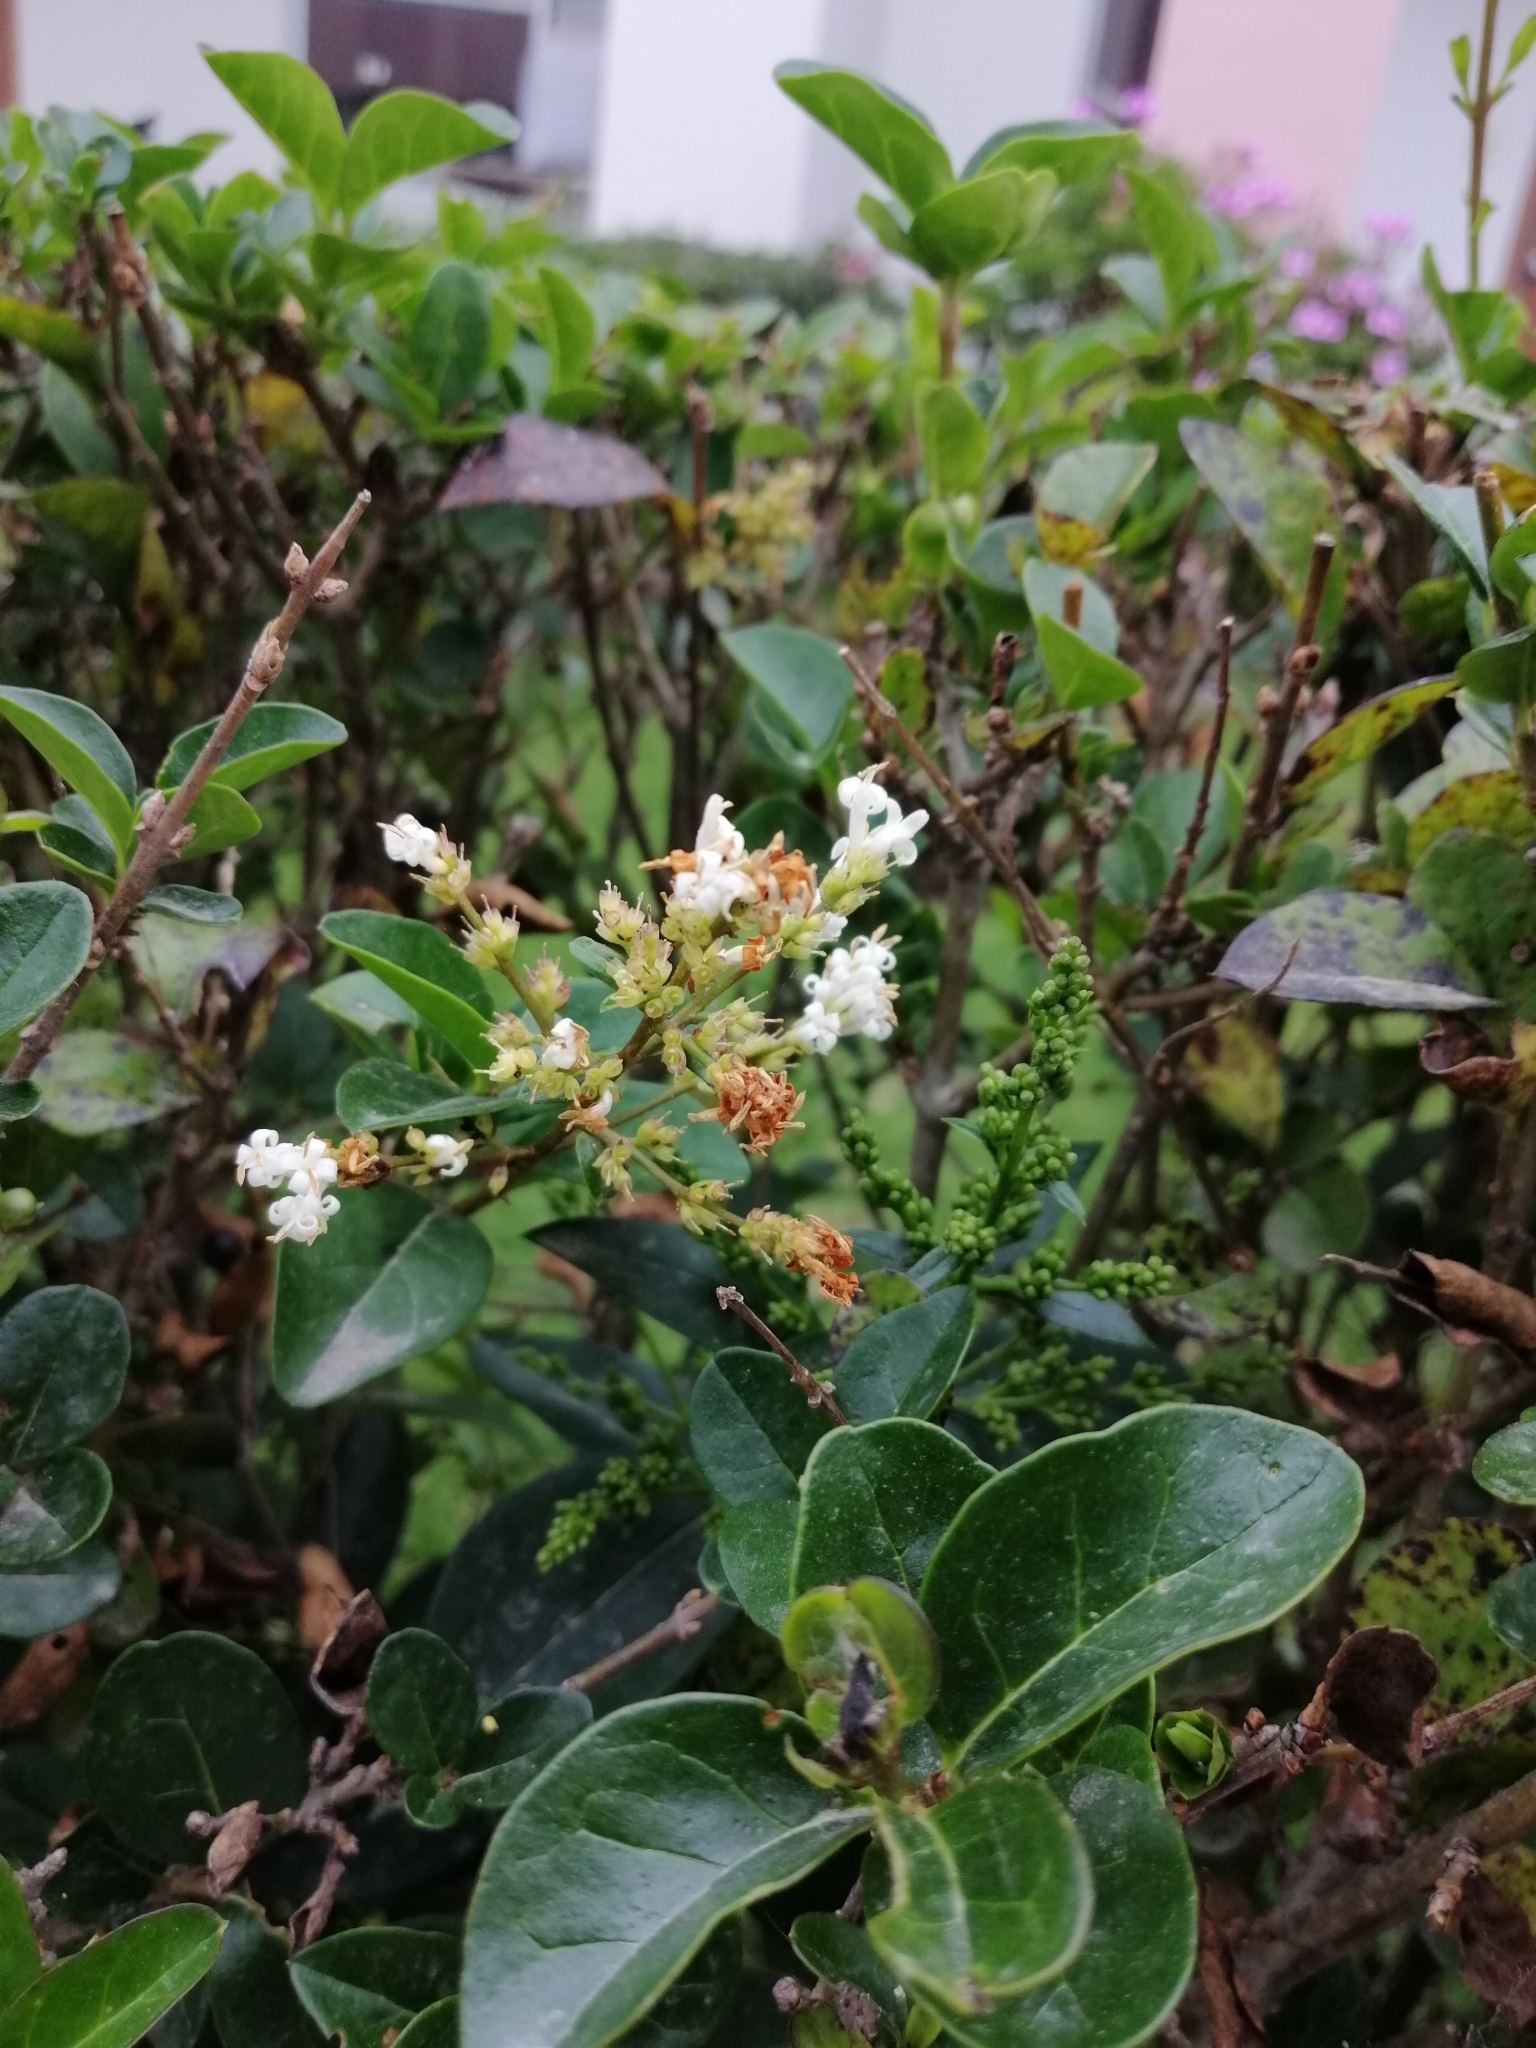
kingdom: Plantae
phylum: Tracheophyta
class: Magnoliopsida
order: Lamiales
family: Oleaceae
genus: Ligustrum
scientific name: Ligustrum ovalifolium
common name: California privet
